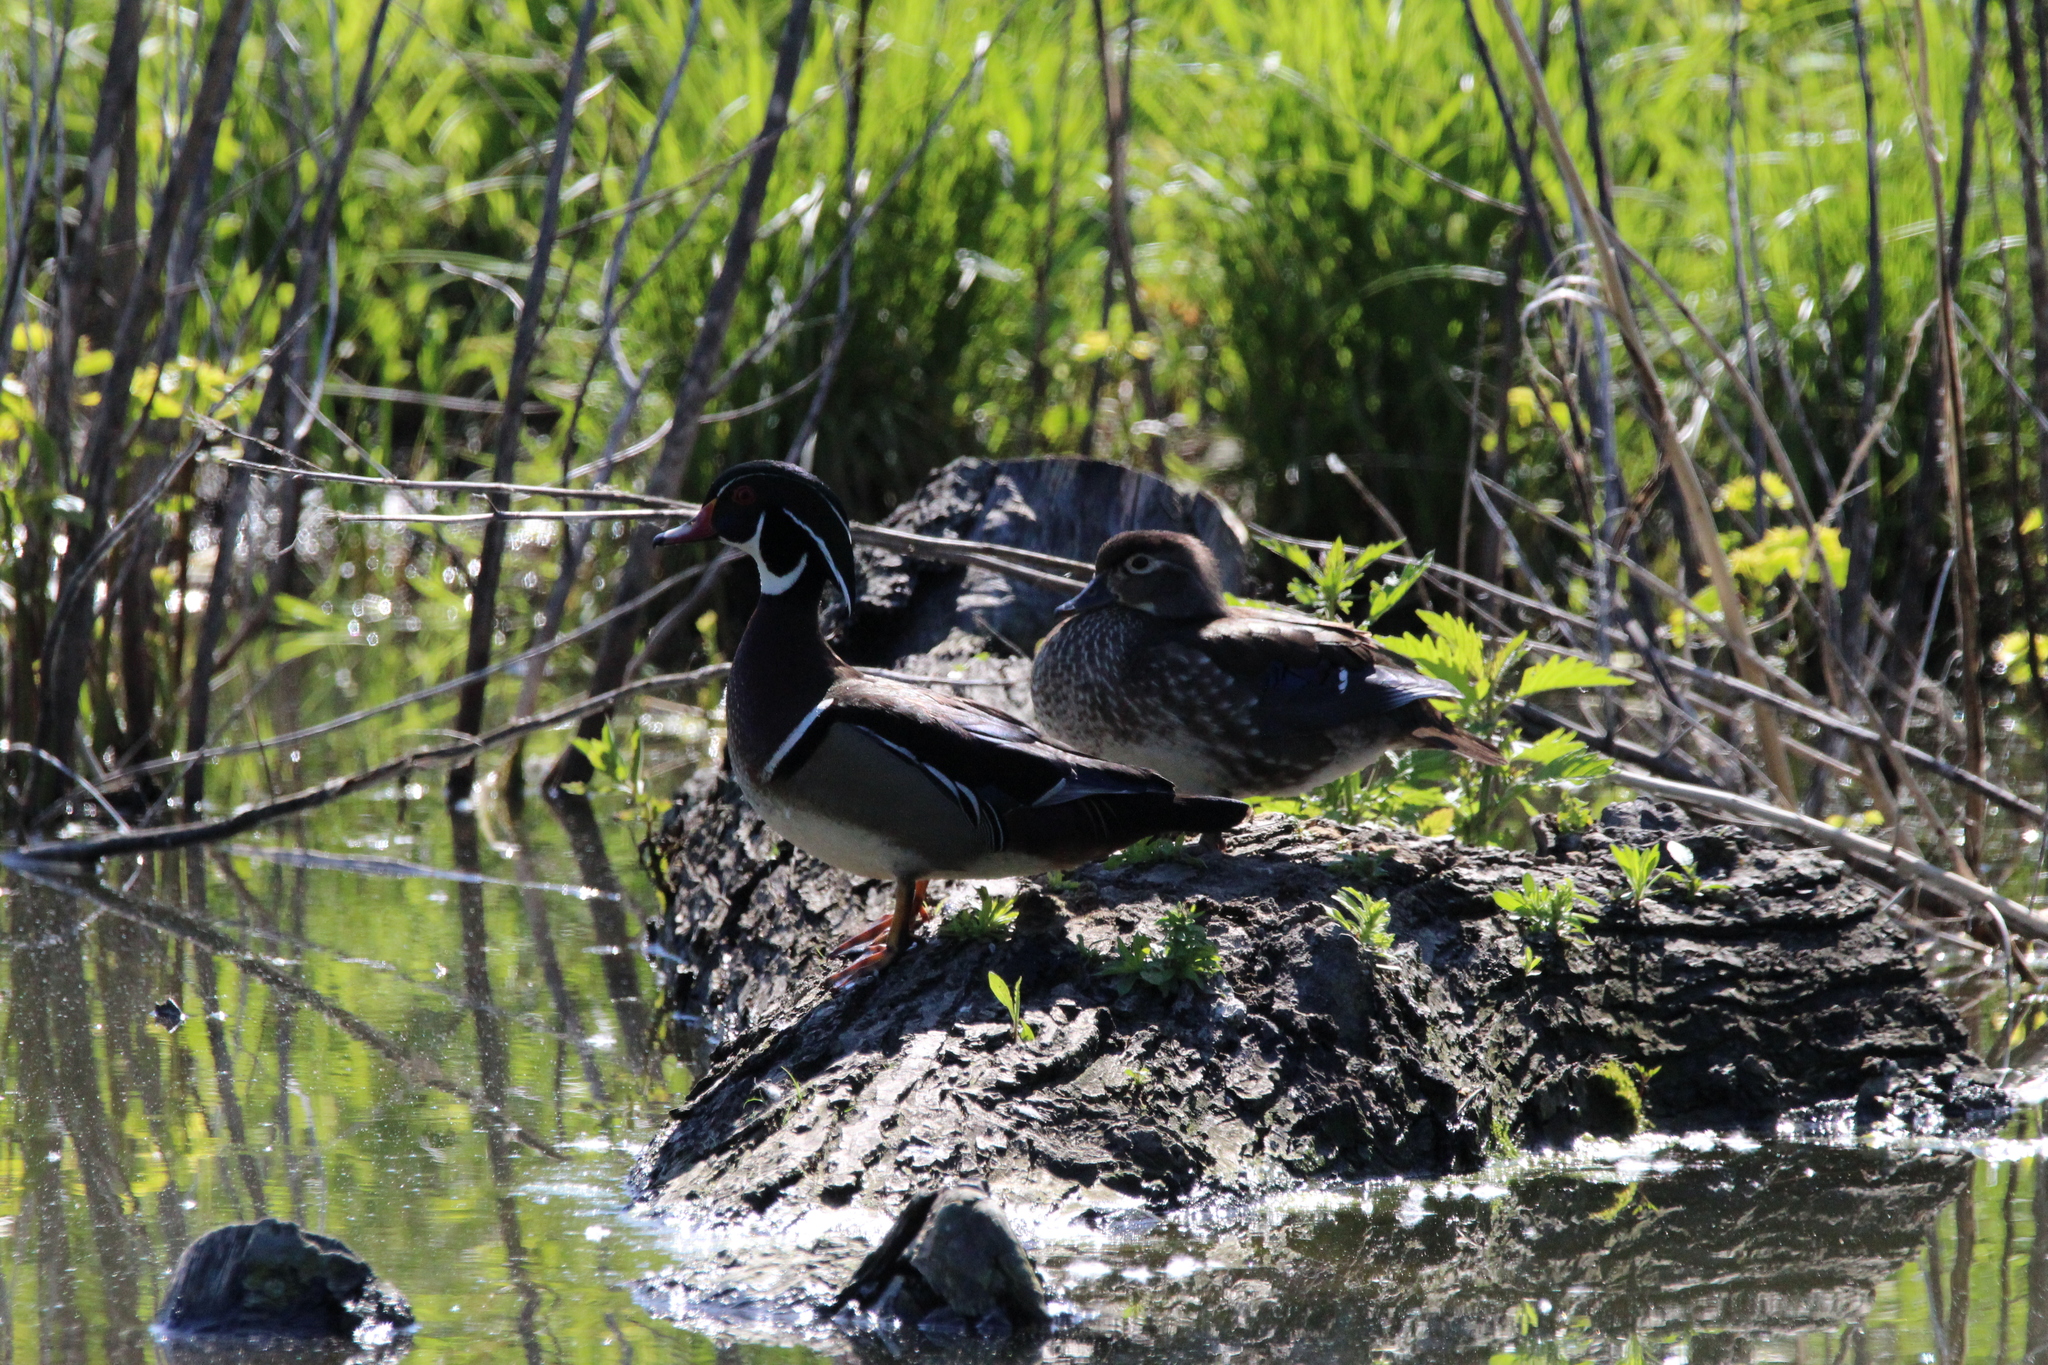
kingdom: Animalia
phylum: Chordata
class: Aves
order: Anseriformes
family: Anatidae
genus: Aix
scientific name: Aix sponsa
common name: Wood duck
